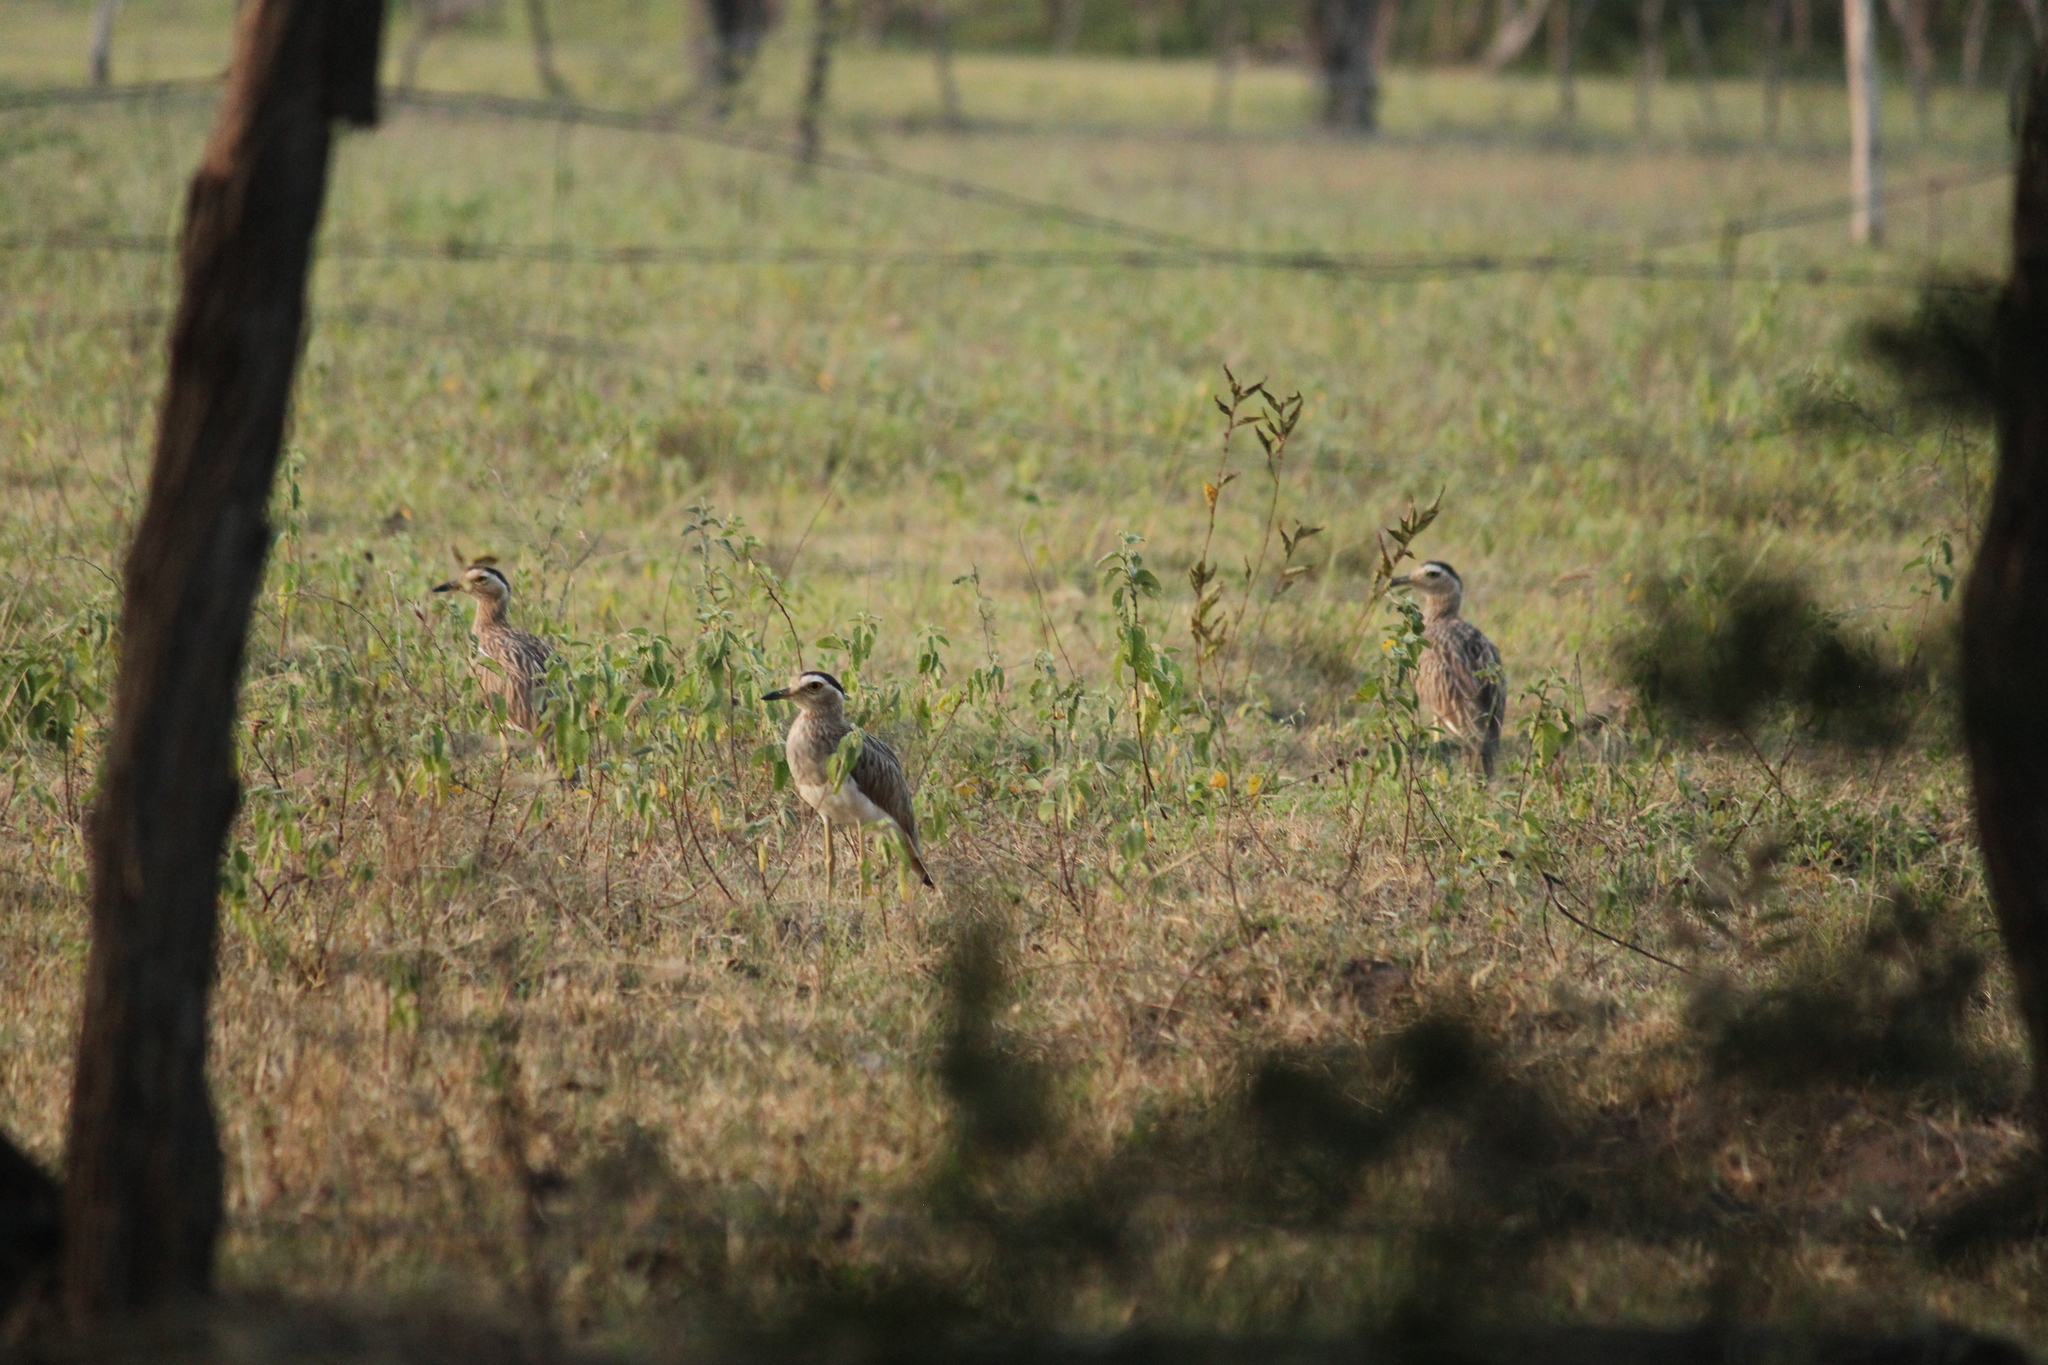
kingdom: Animalia
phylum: Chordata
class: Aves
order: Charadriiformes
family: Burhinidae
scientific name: Burhinidae
